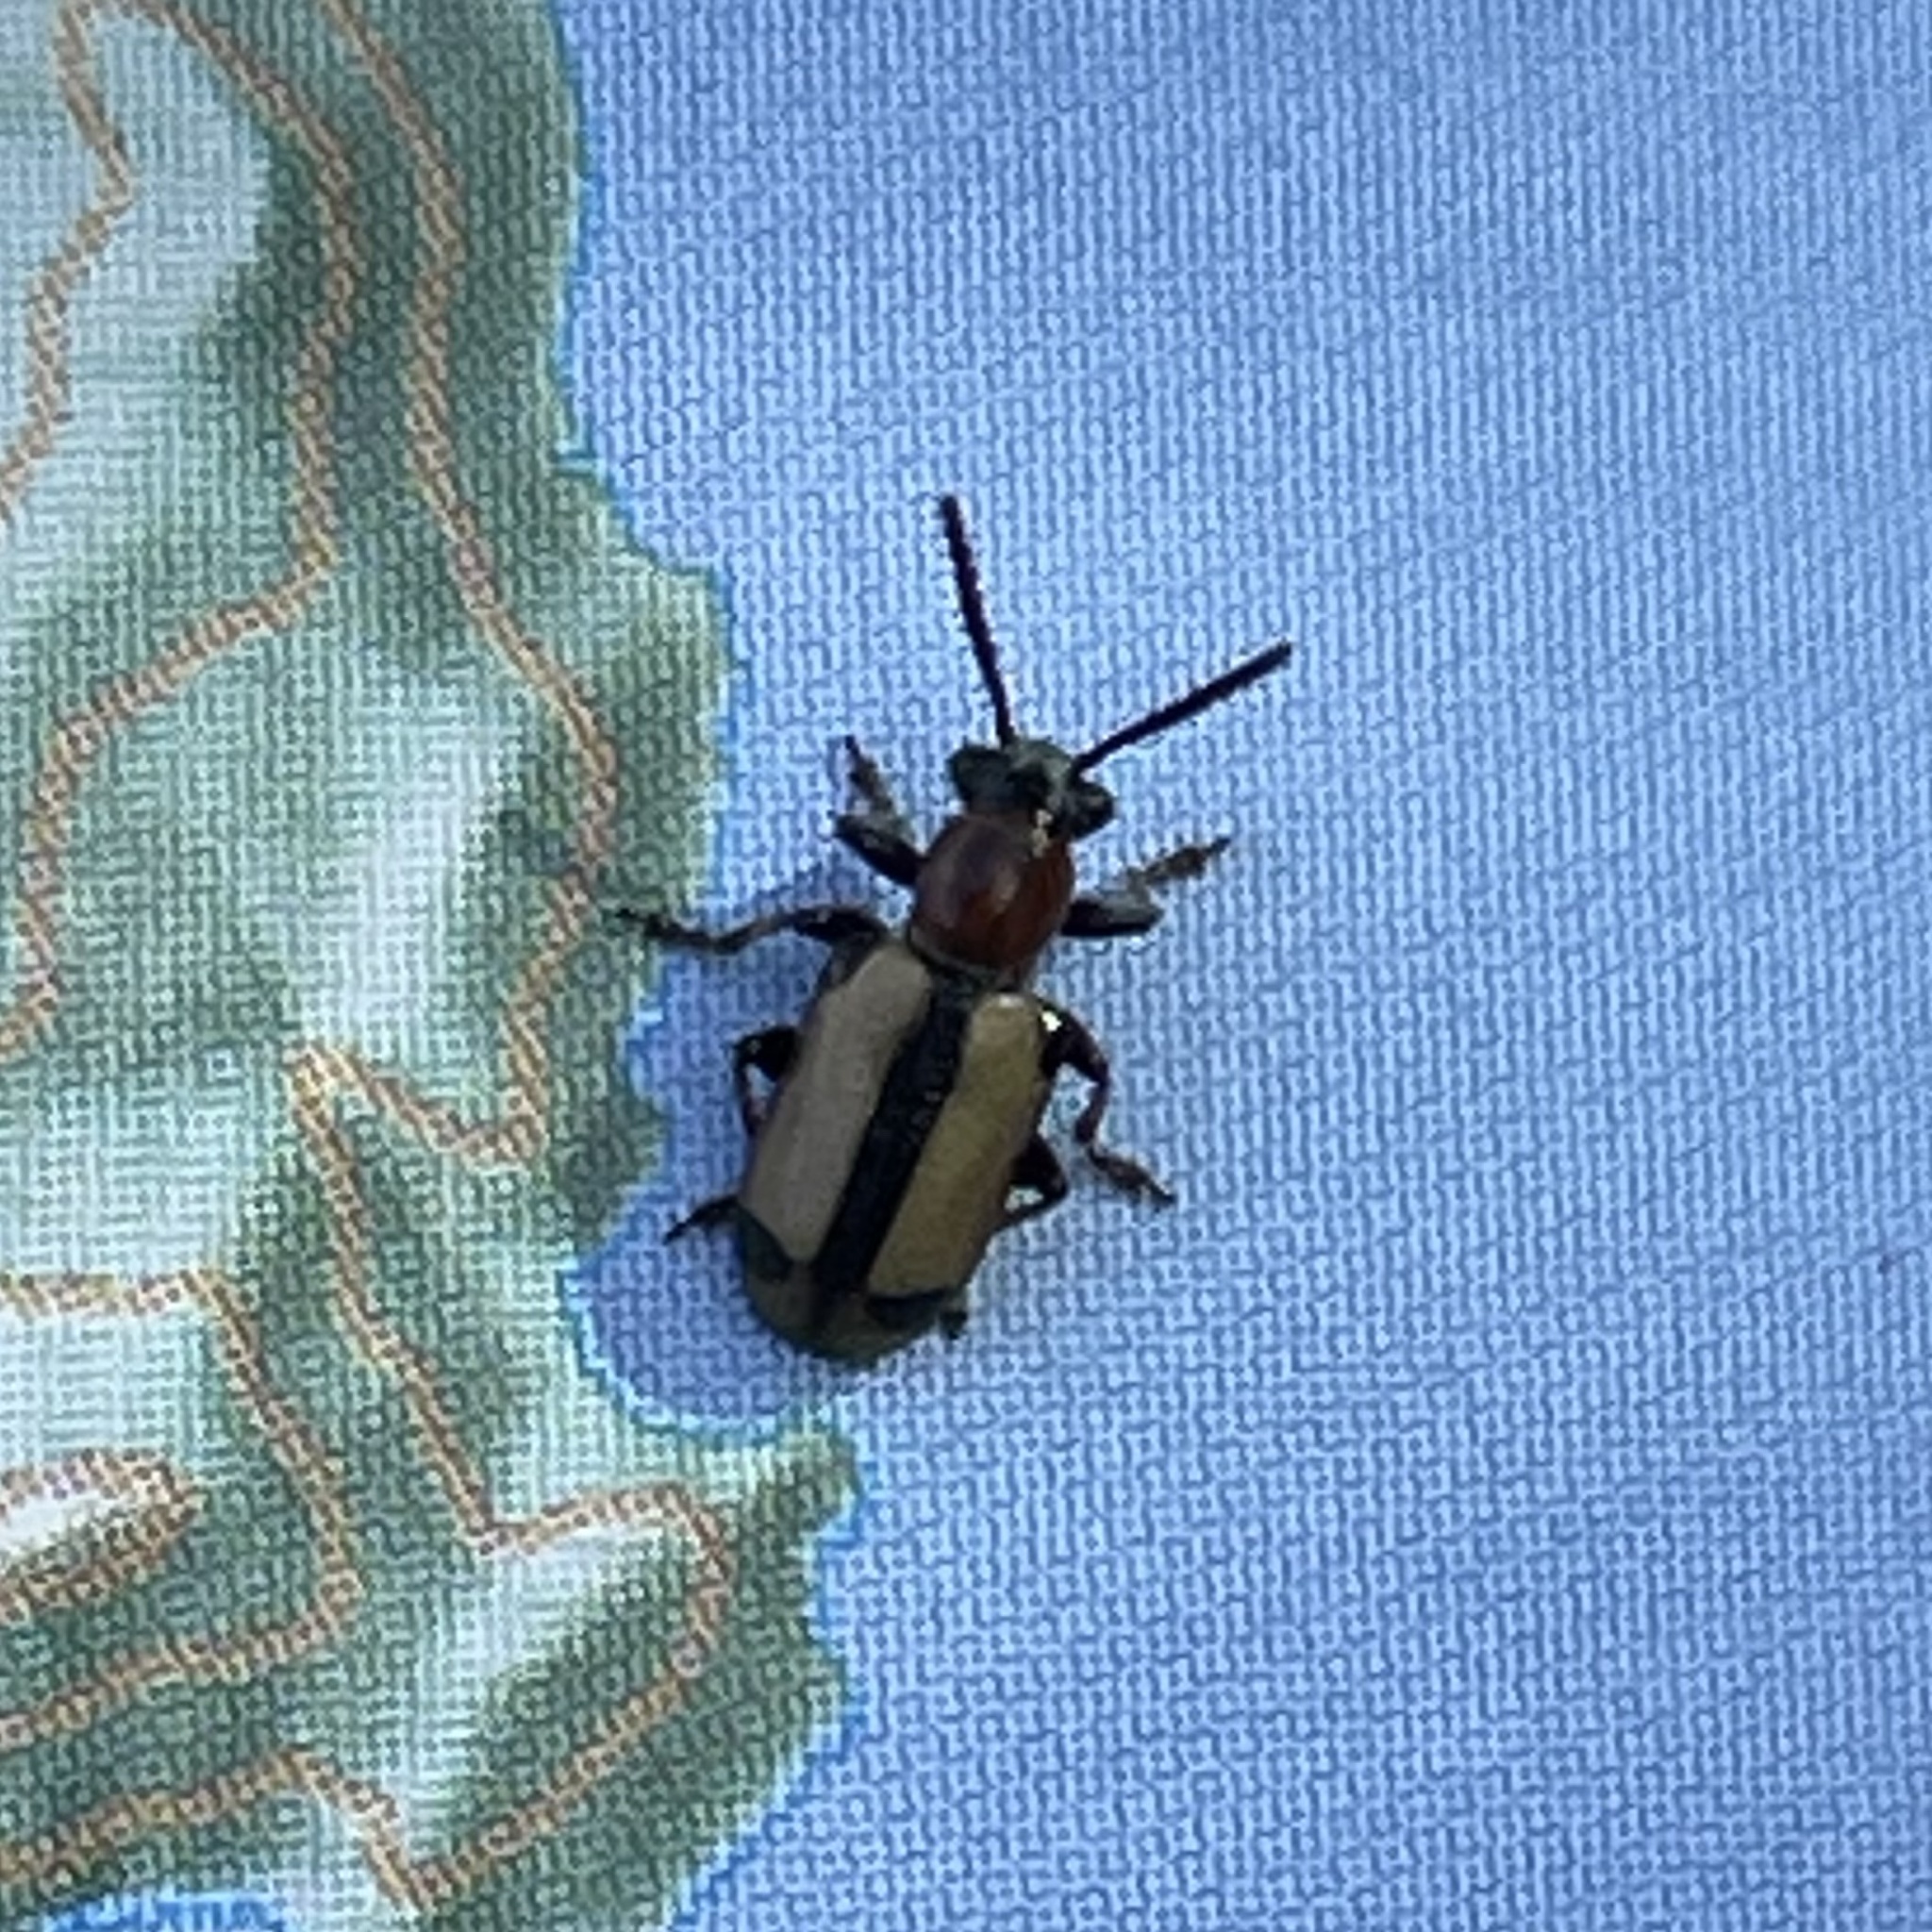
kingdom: Animalia
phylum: Arthropoda
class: Insecta
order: Coleoptera
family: Chrysomelidae
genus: Crioceris
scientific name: Crioceris paracenthesis
